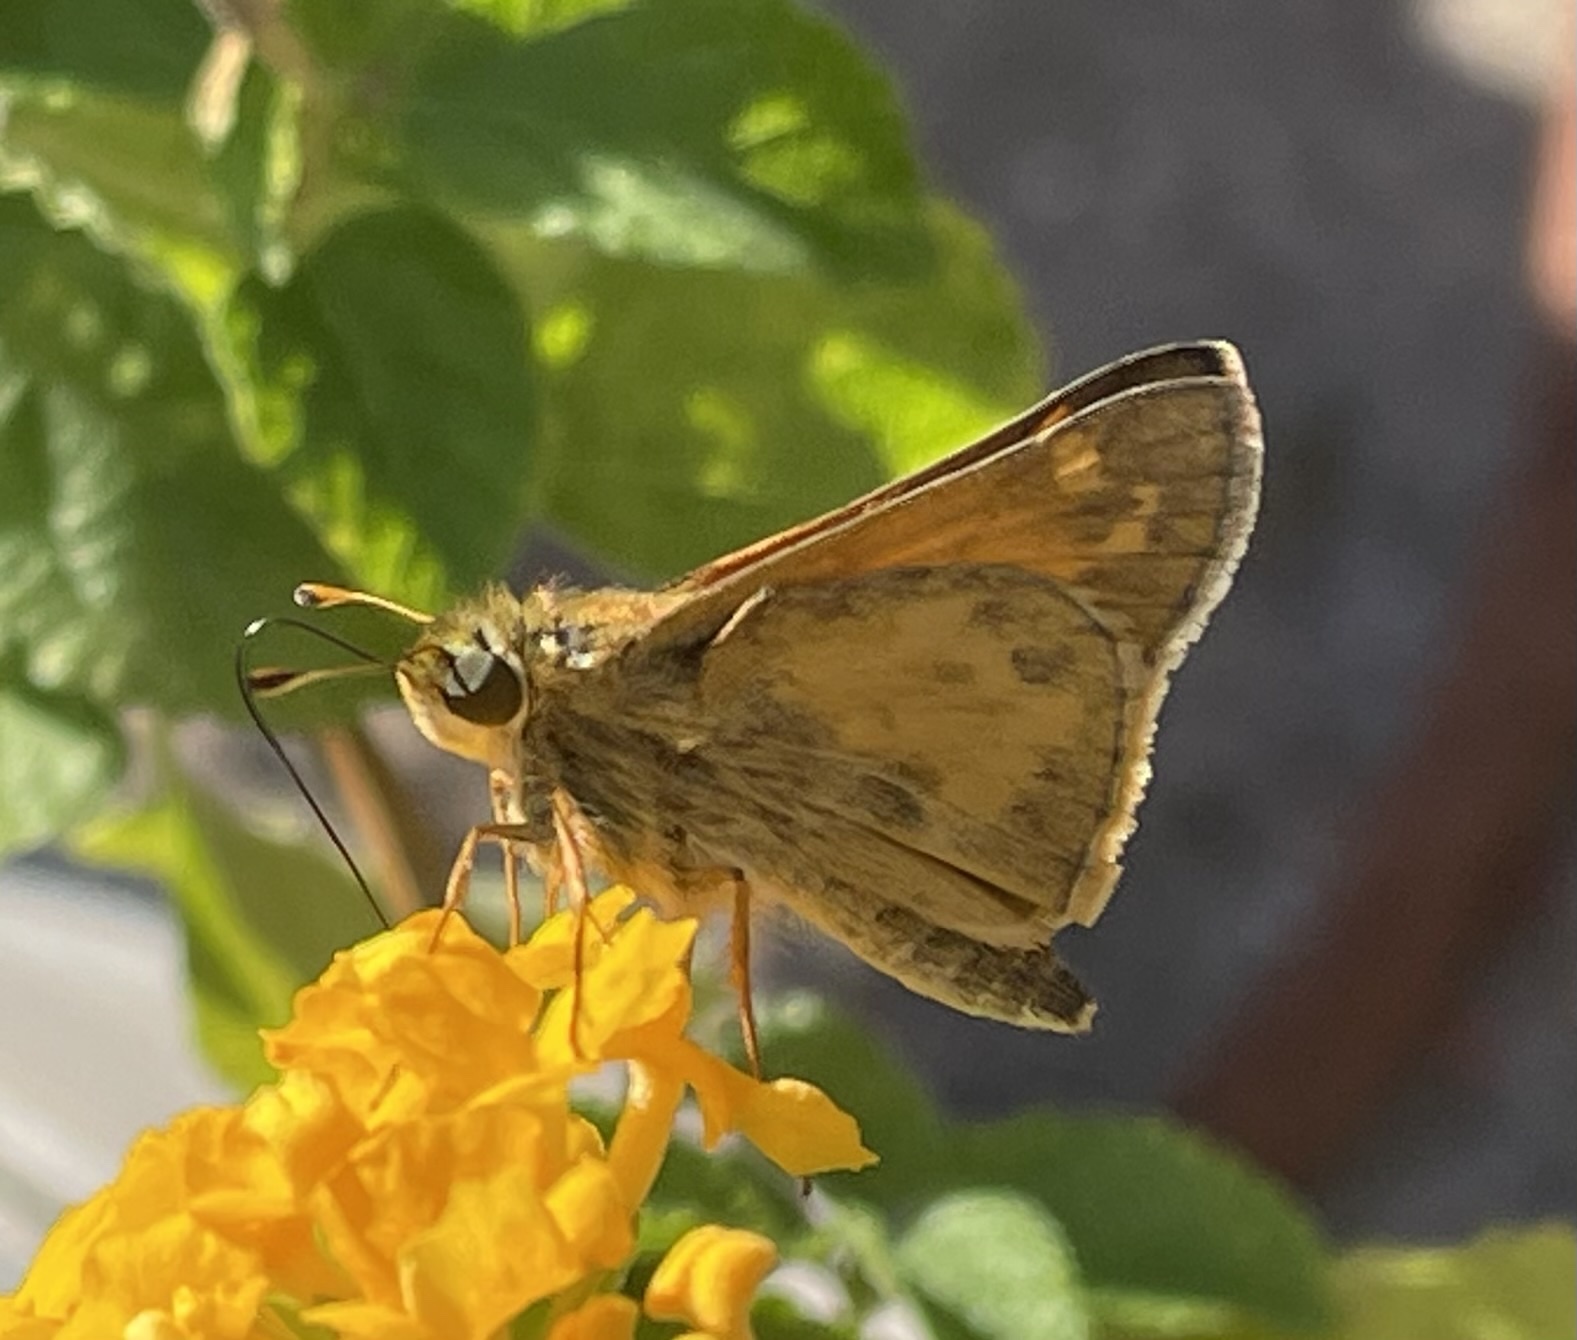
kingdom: Animalia
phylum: Arthropoda
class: Insecta
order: Lepidoptera
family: Hesperiidae
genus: Atalopedes
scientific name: Atalopedes
